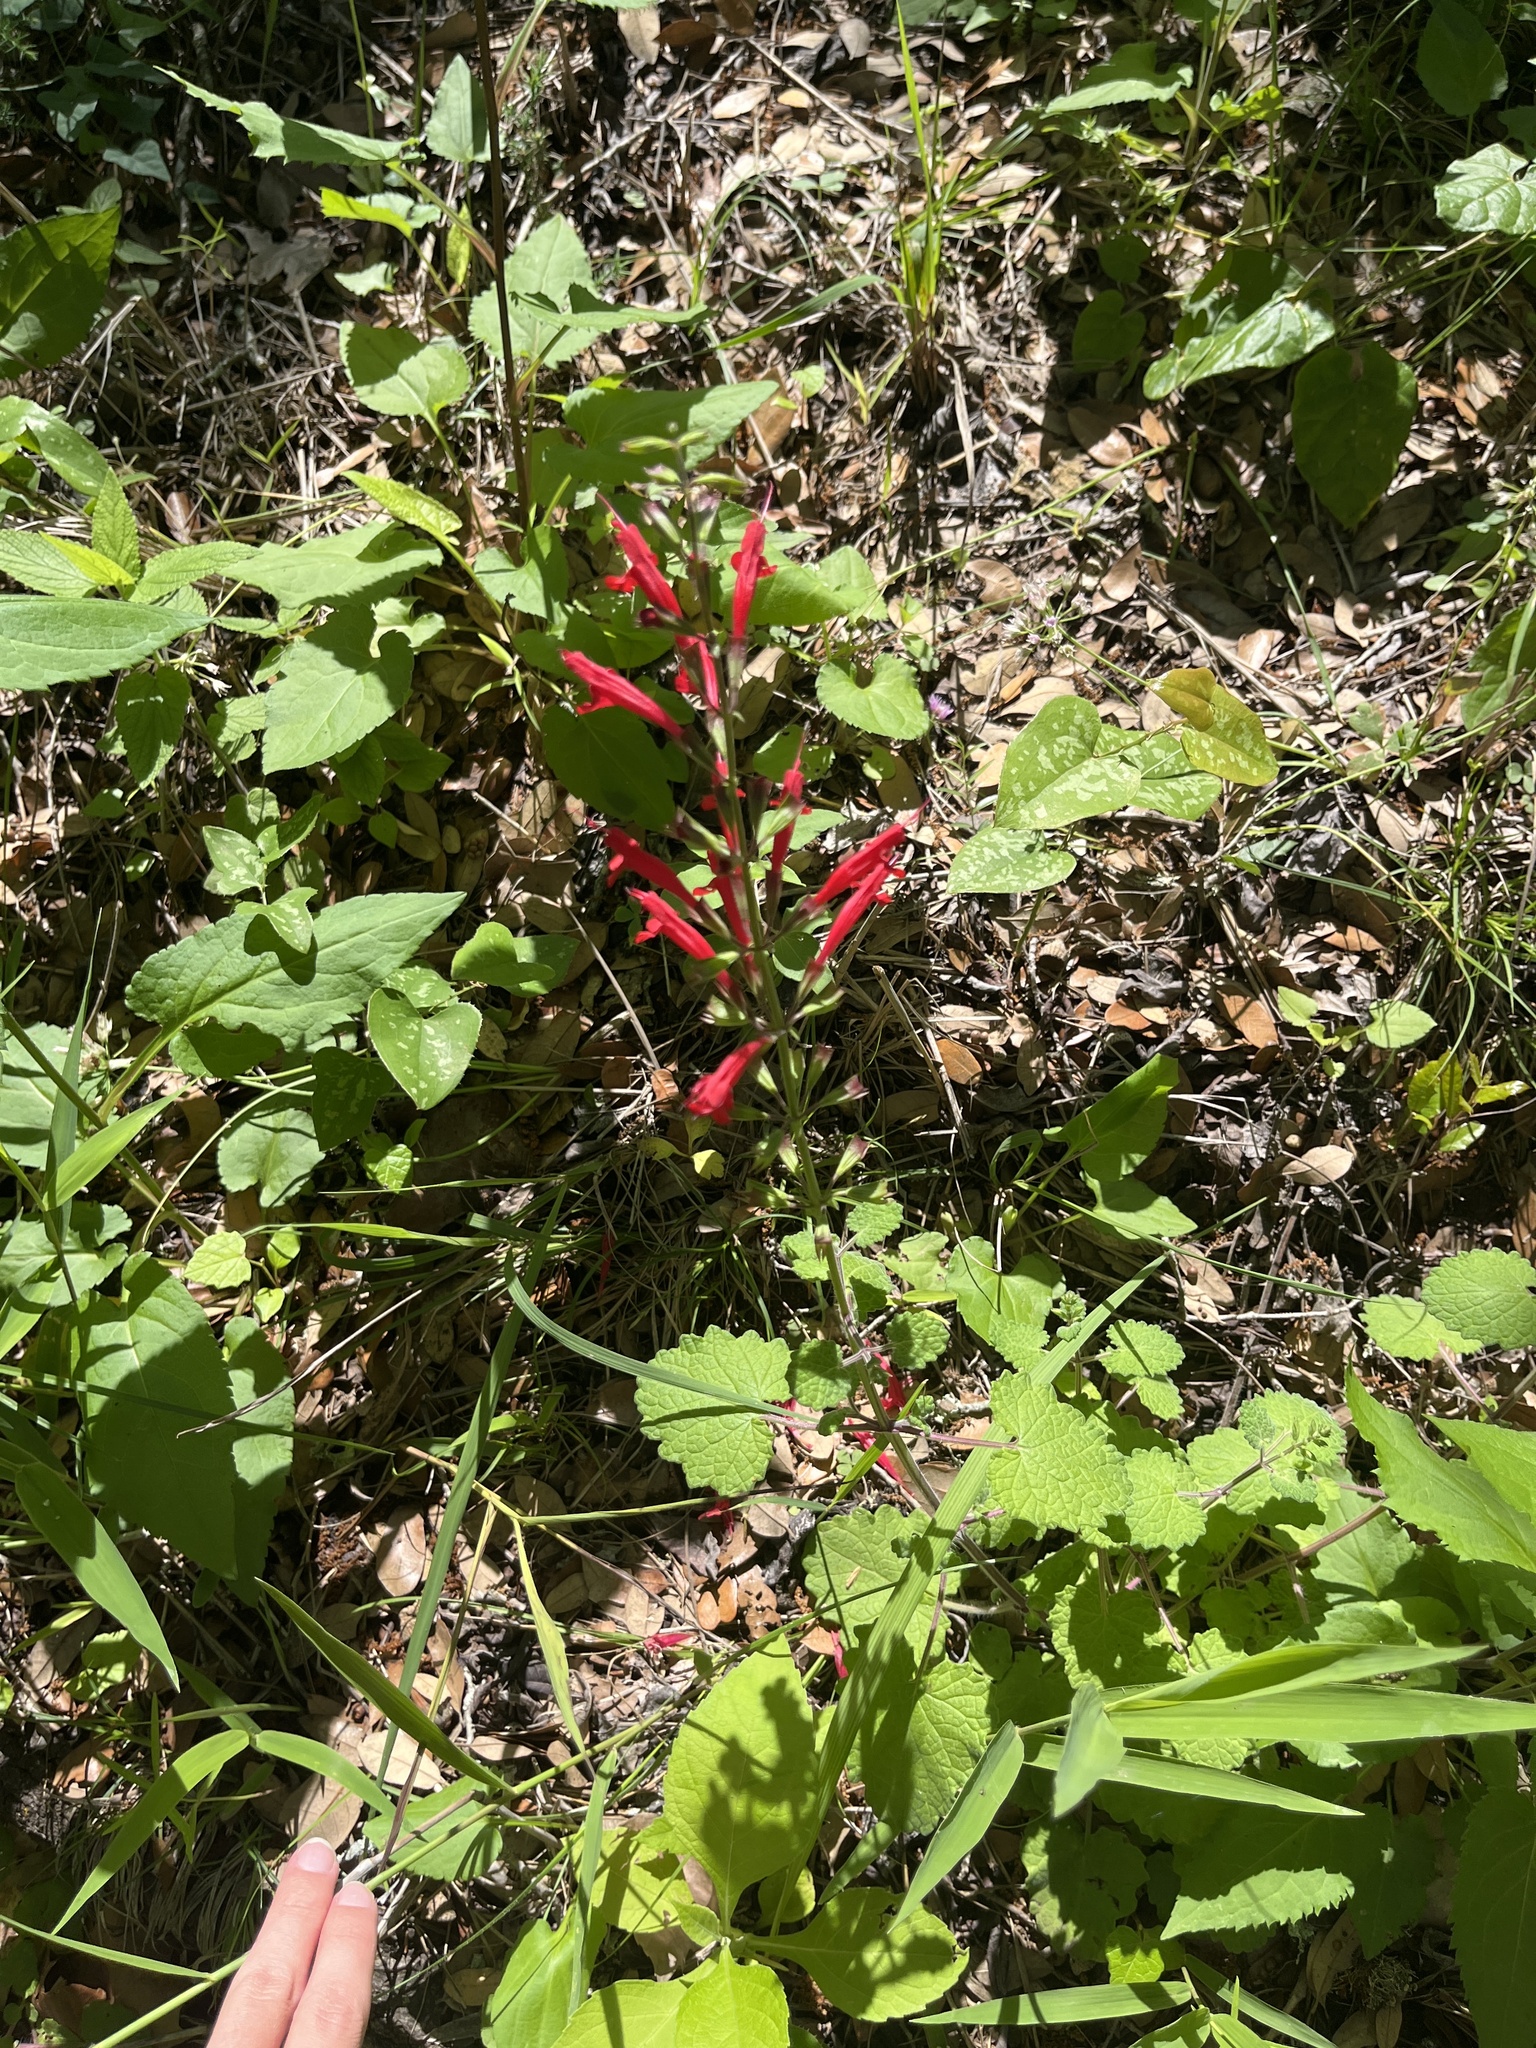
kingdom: Plantae
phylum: Tracheophyta
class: Magnoliopsida
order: Lamiales
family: Lamiaceae
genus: Salvia
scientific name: Salvia roemeriana
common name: Cedar sage
